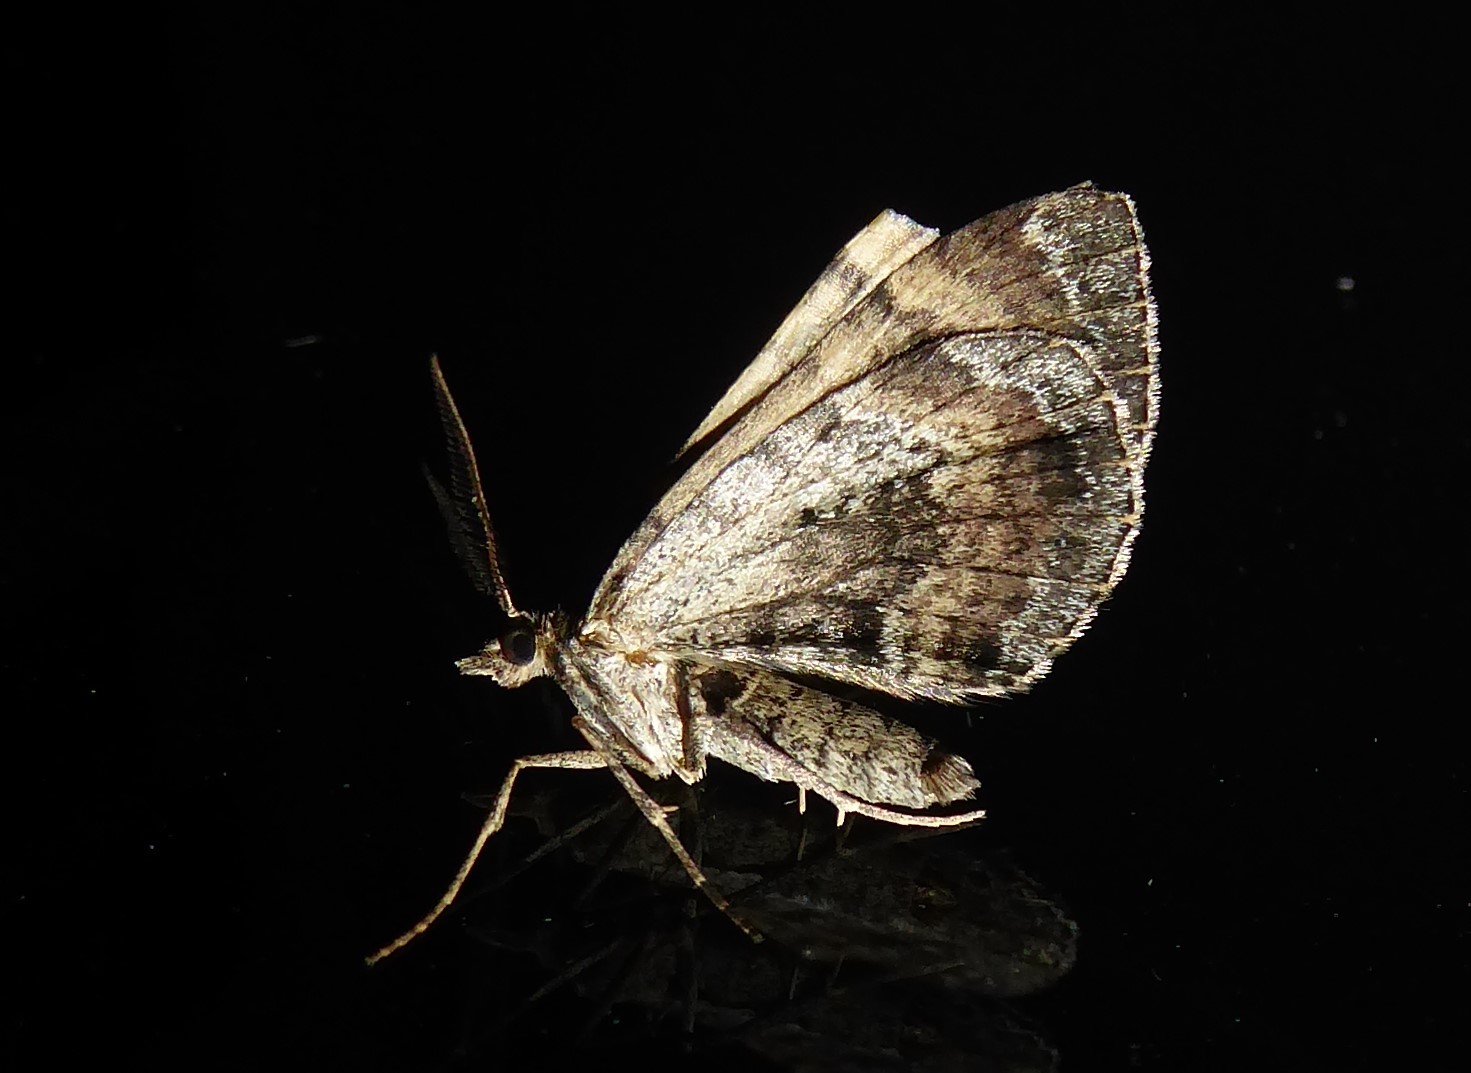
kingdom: Animalia
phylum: Arthropoda
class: Insecta
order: Lepidoptera
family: Geometridae
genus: Asaphodes
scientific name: Asaphodes aegrota
